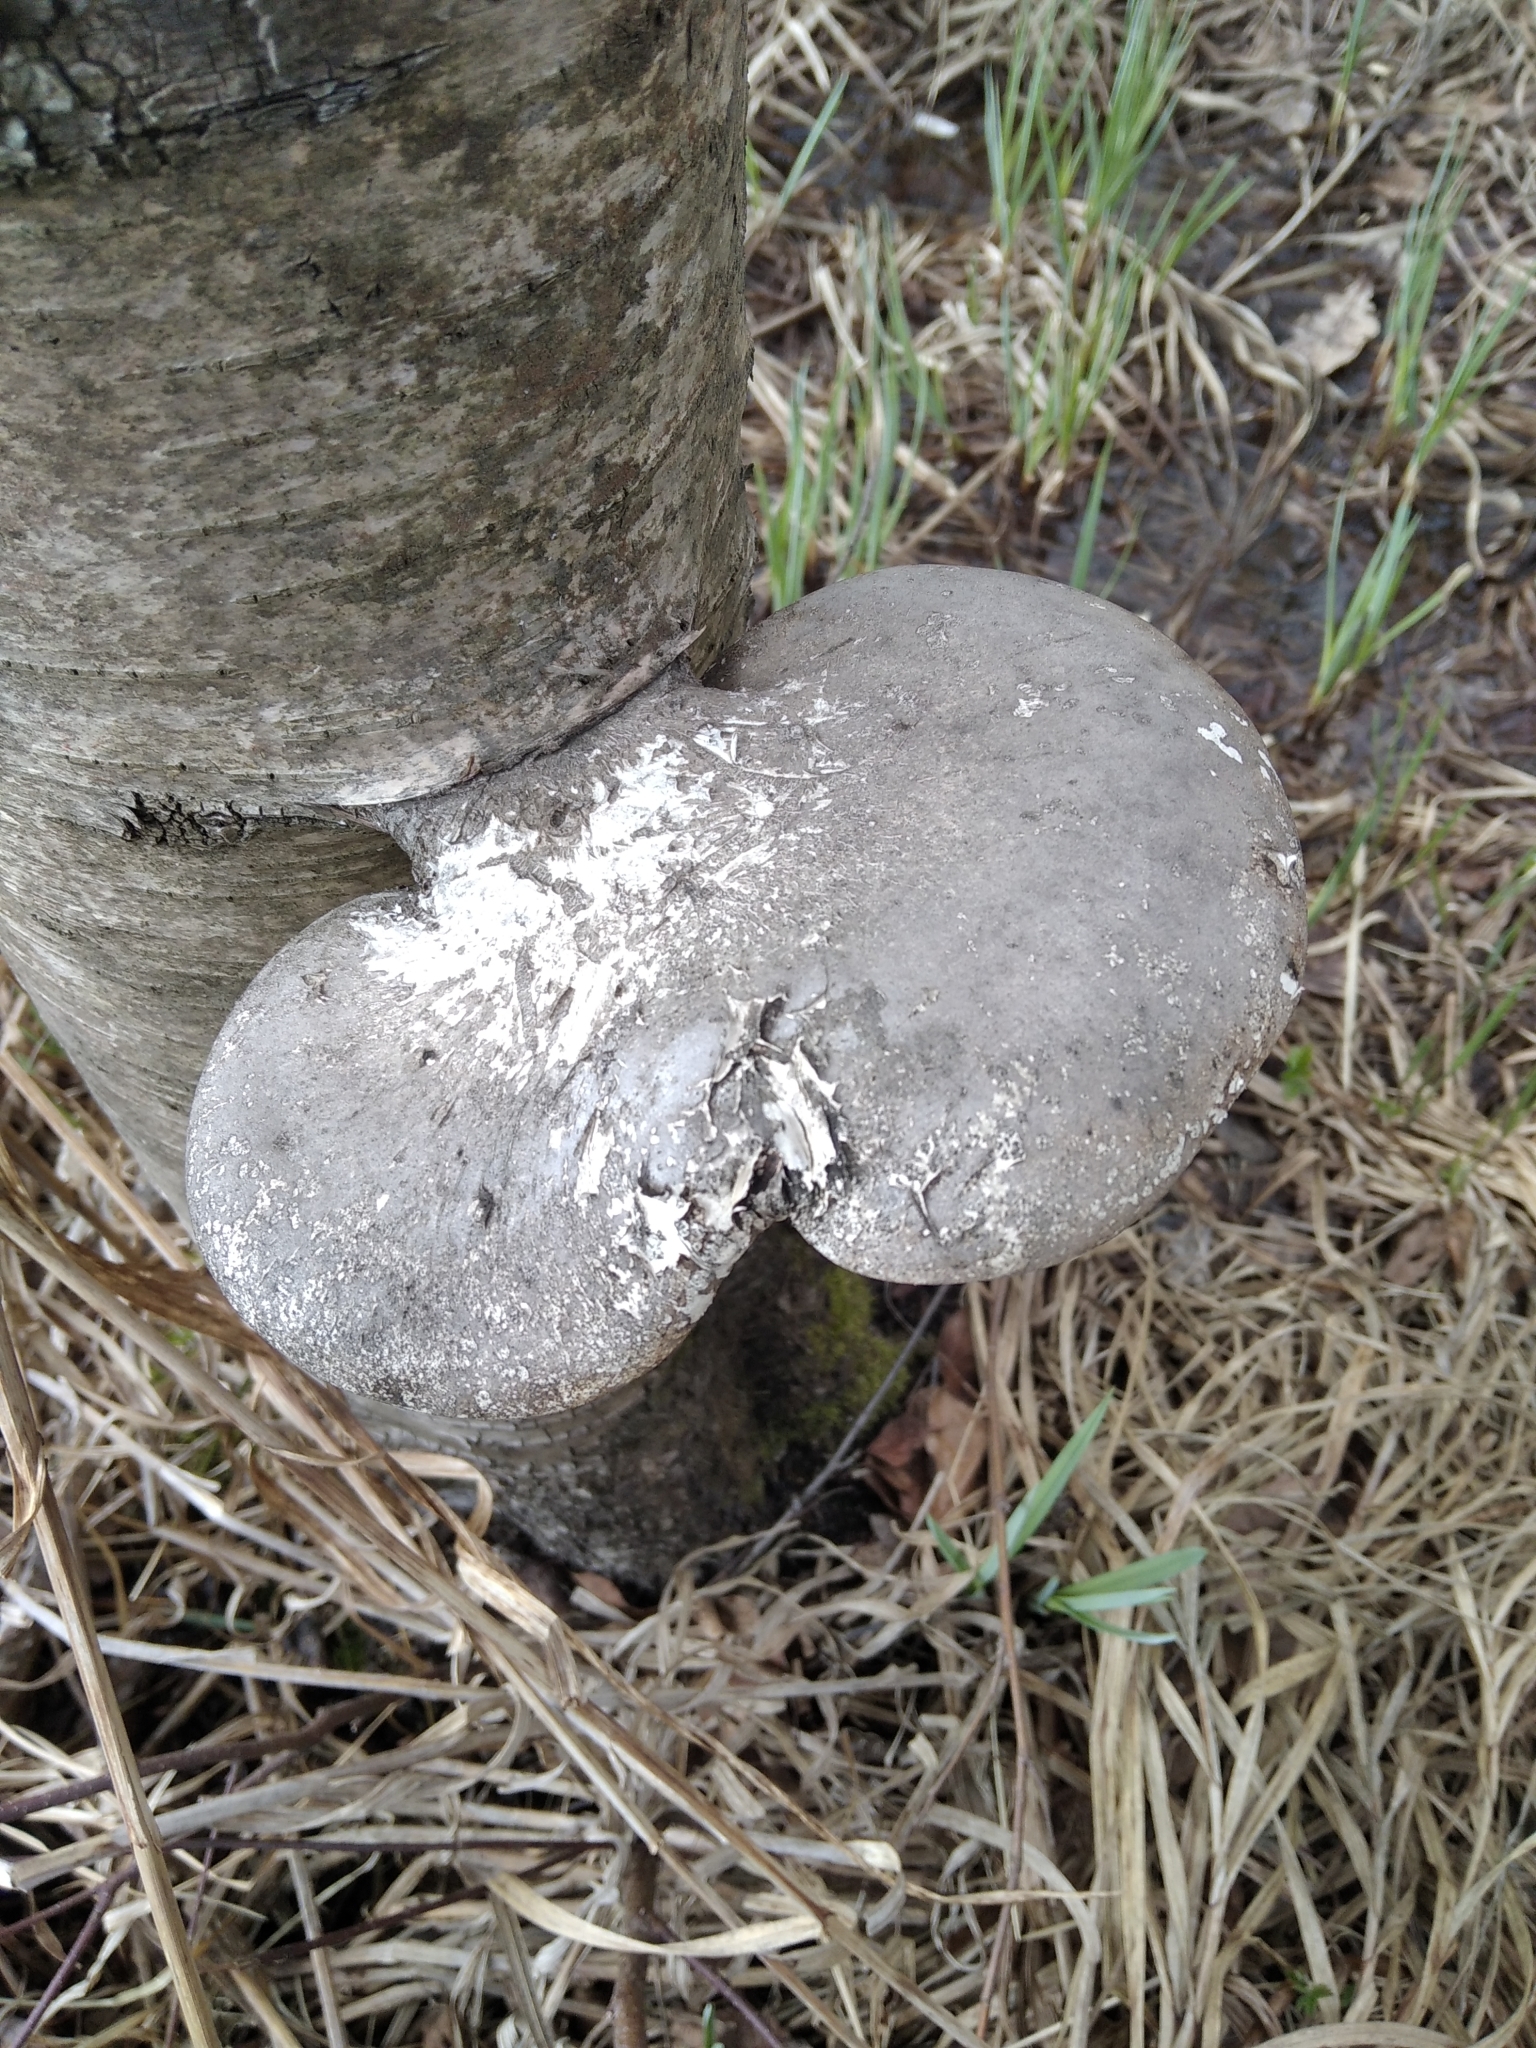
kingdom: Fungi
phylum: Basidiomycota
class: Agaricomycetes
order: Polyporales
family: Fomitopsidaceae
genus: Fomitopsis
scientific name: Fomitopsis betulina
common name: Birch polypore
